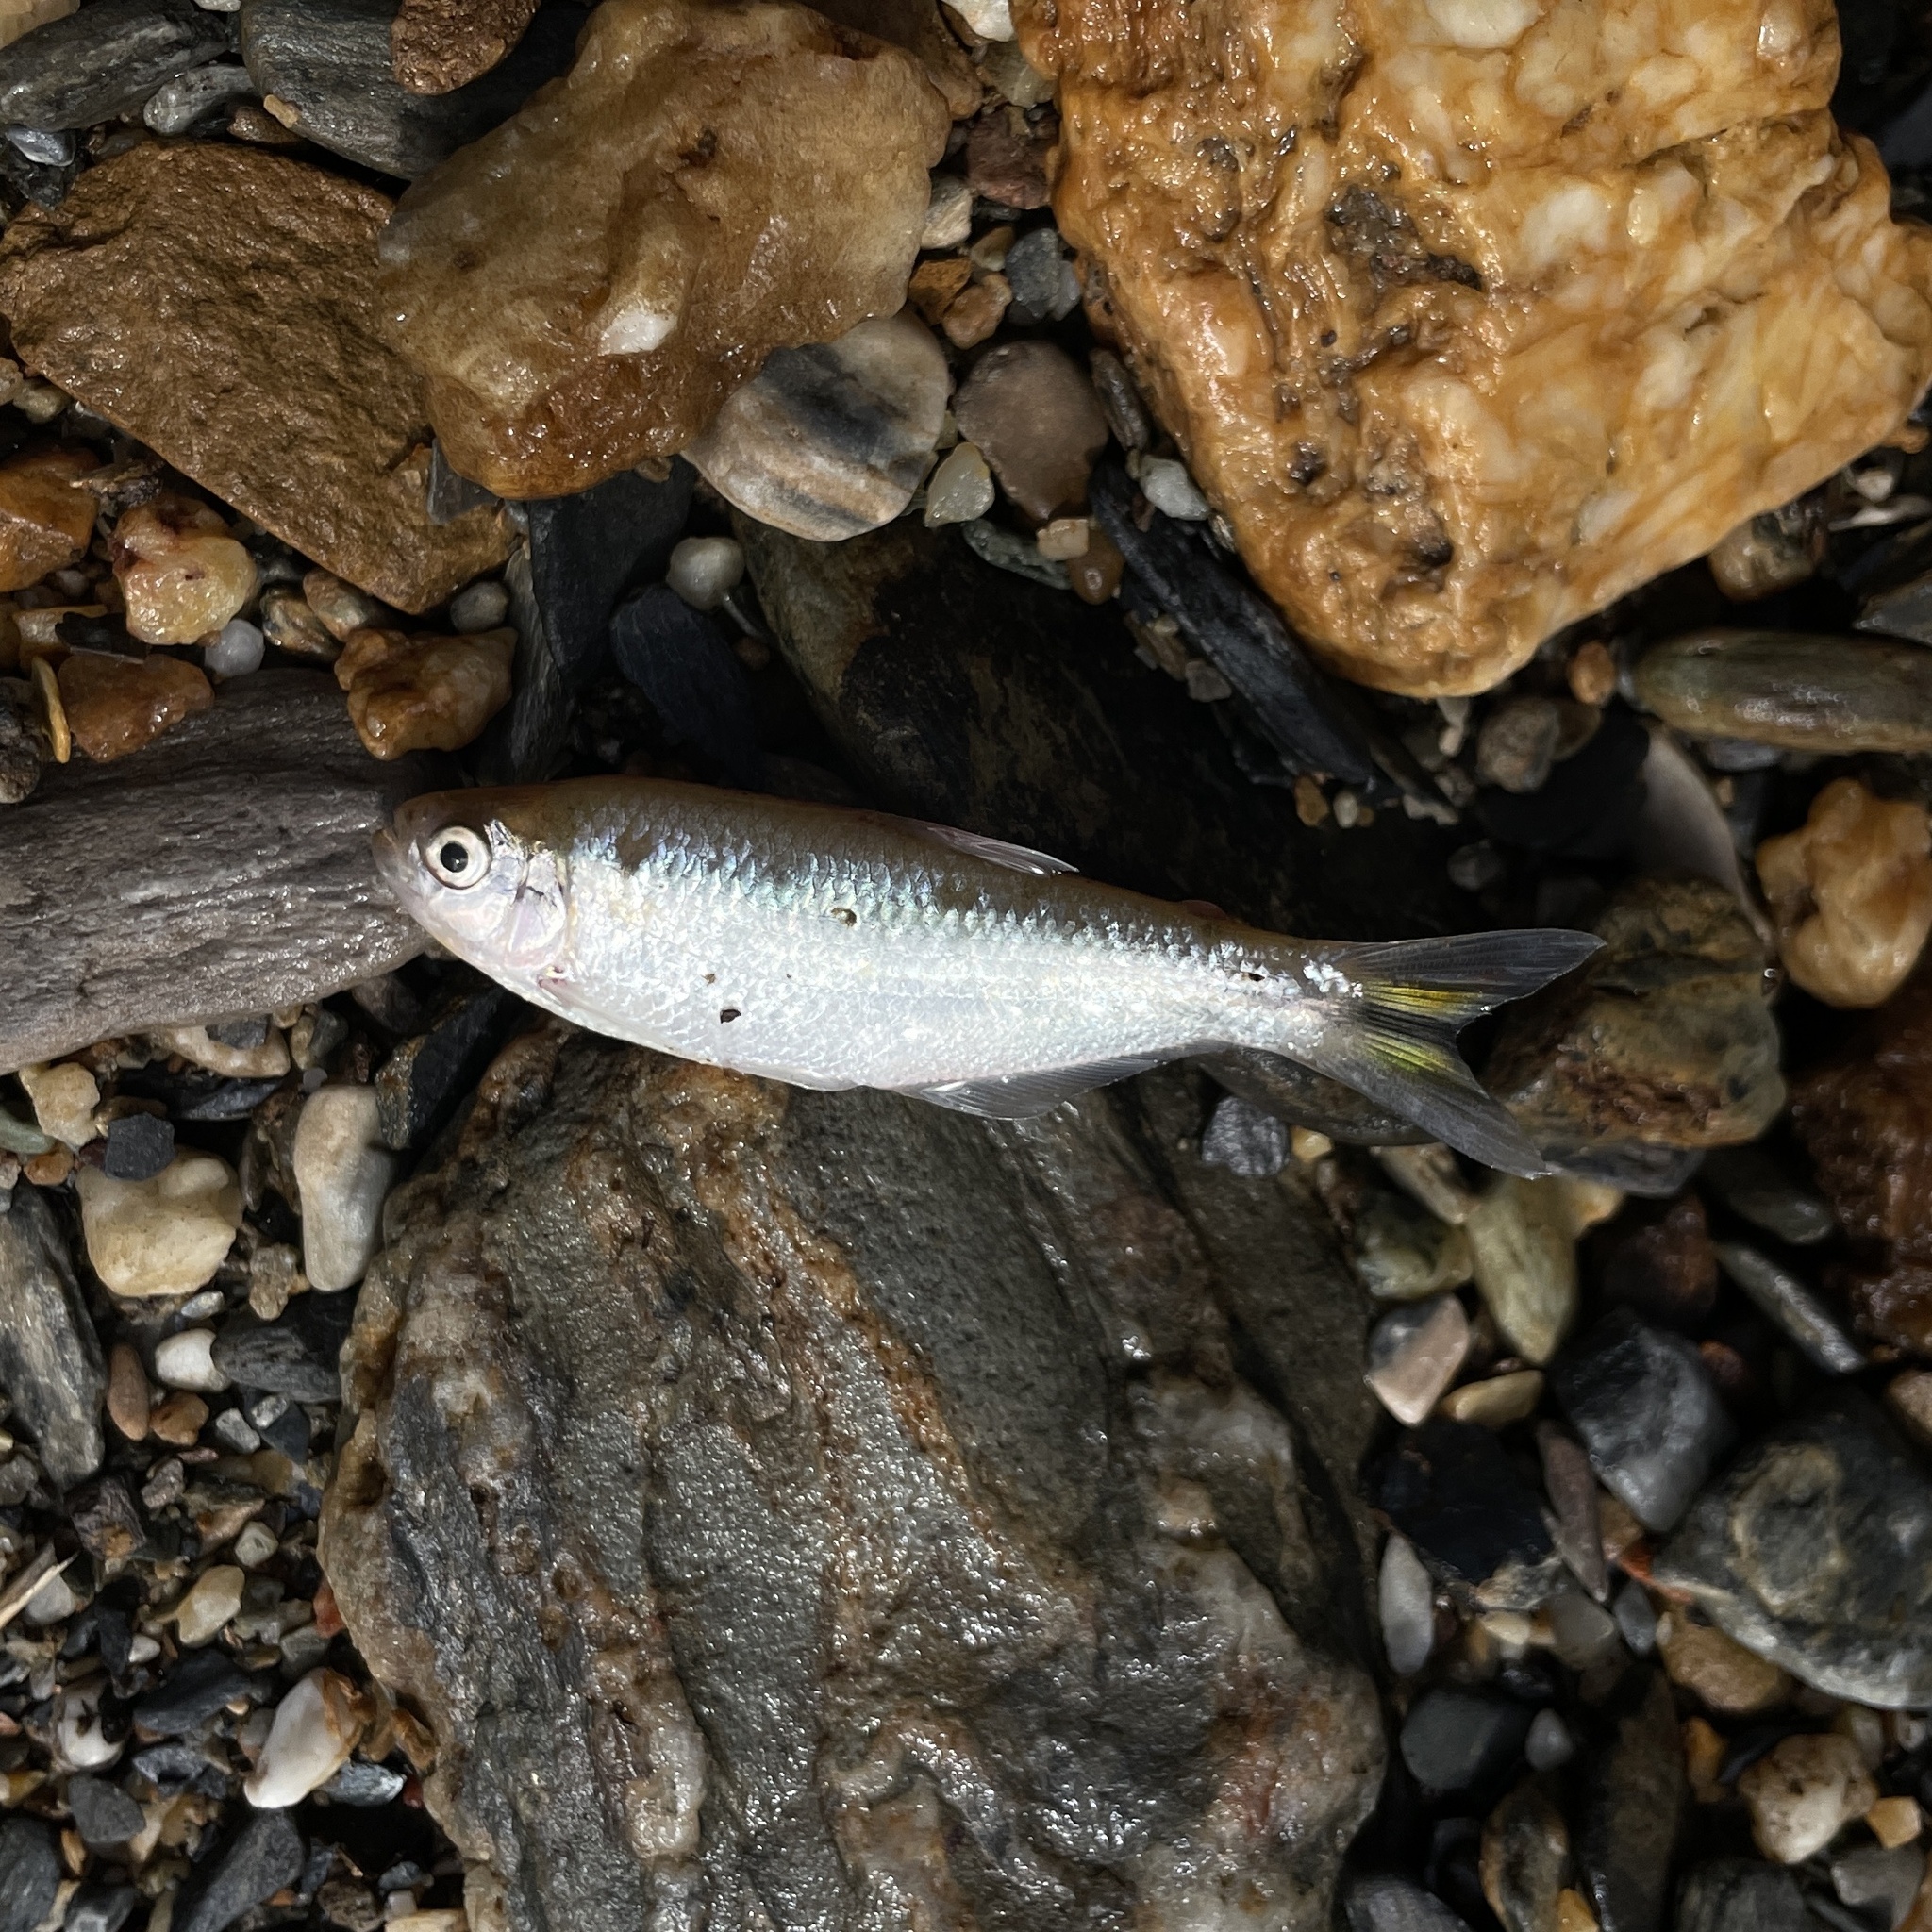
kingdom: Animalia
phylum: Chordata
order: Characiformes
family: Characidae
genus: Hemibrycon
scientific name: Hemibrycon taeniurus
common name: Mountain stream sardine
